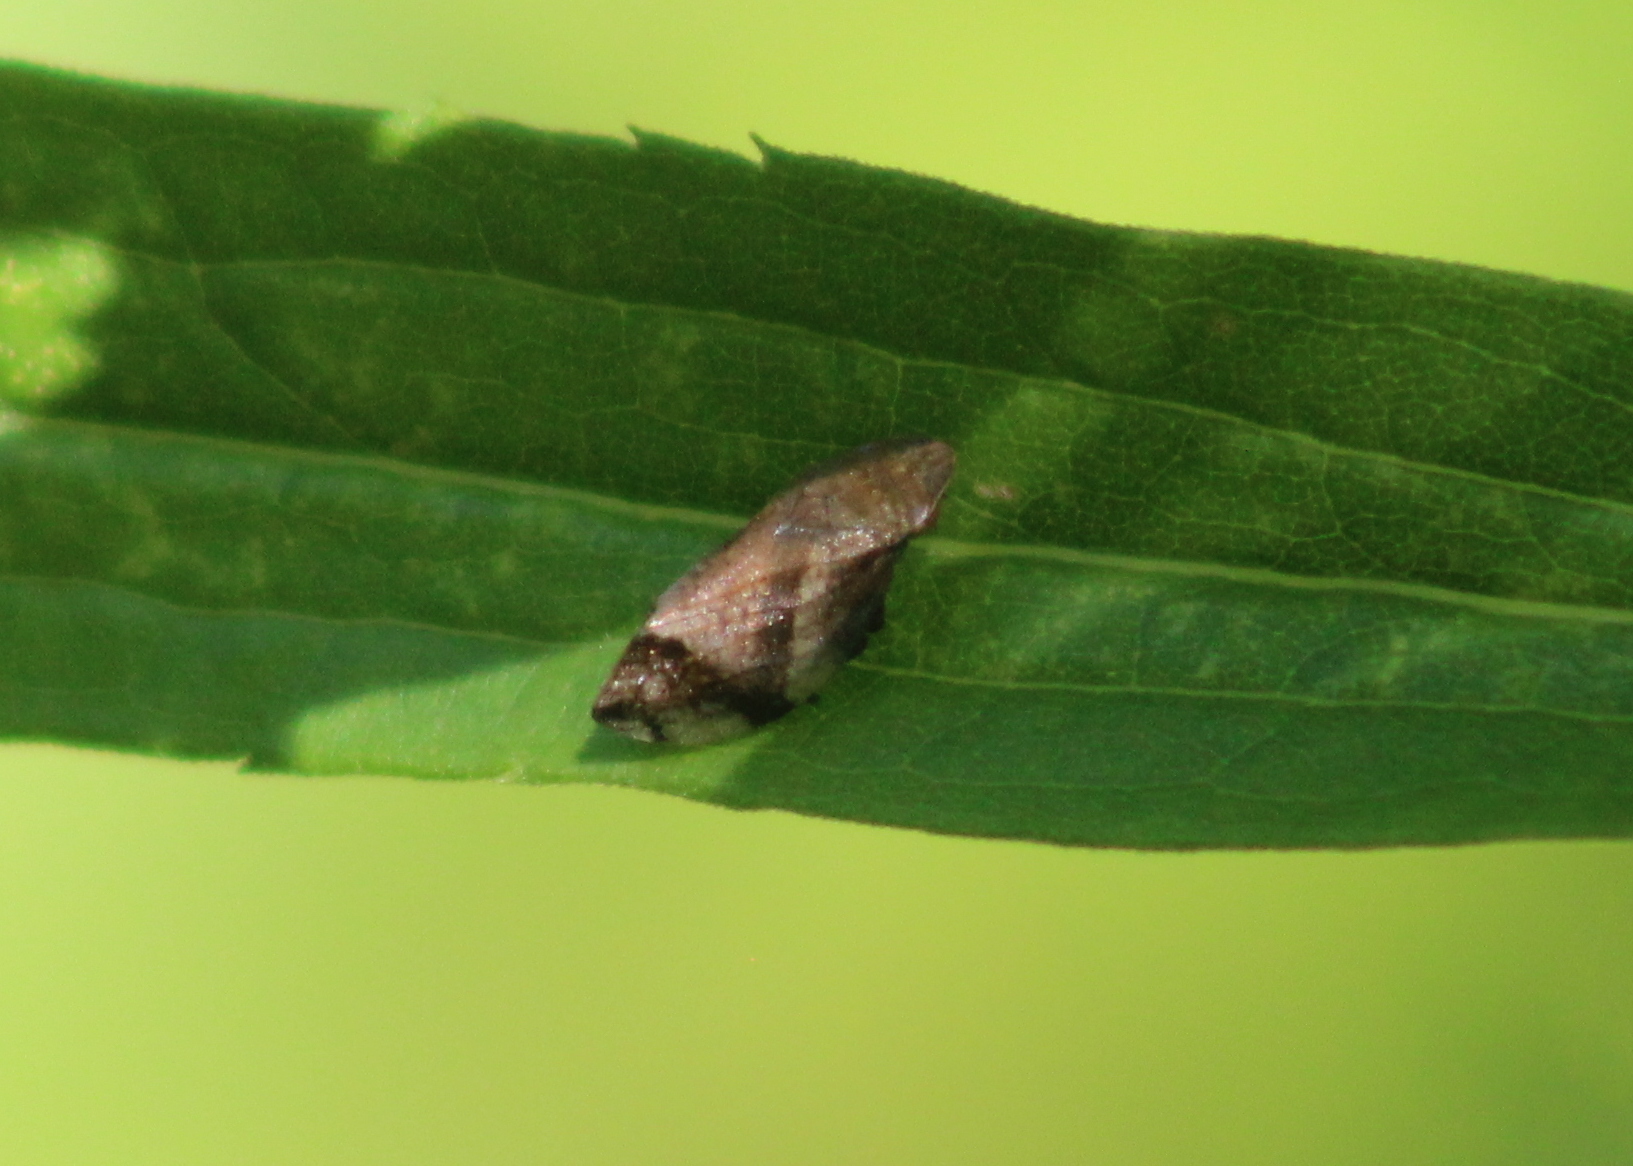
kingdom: Animalia
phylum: Arthropoda
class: Insecta
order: Hemiptera
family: Aphrophoridae
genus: Lepyronia
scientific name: Lepyronia quadrangularis
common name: Diamond-backed spittlebug
